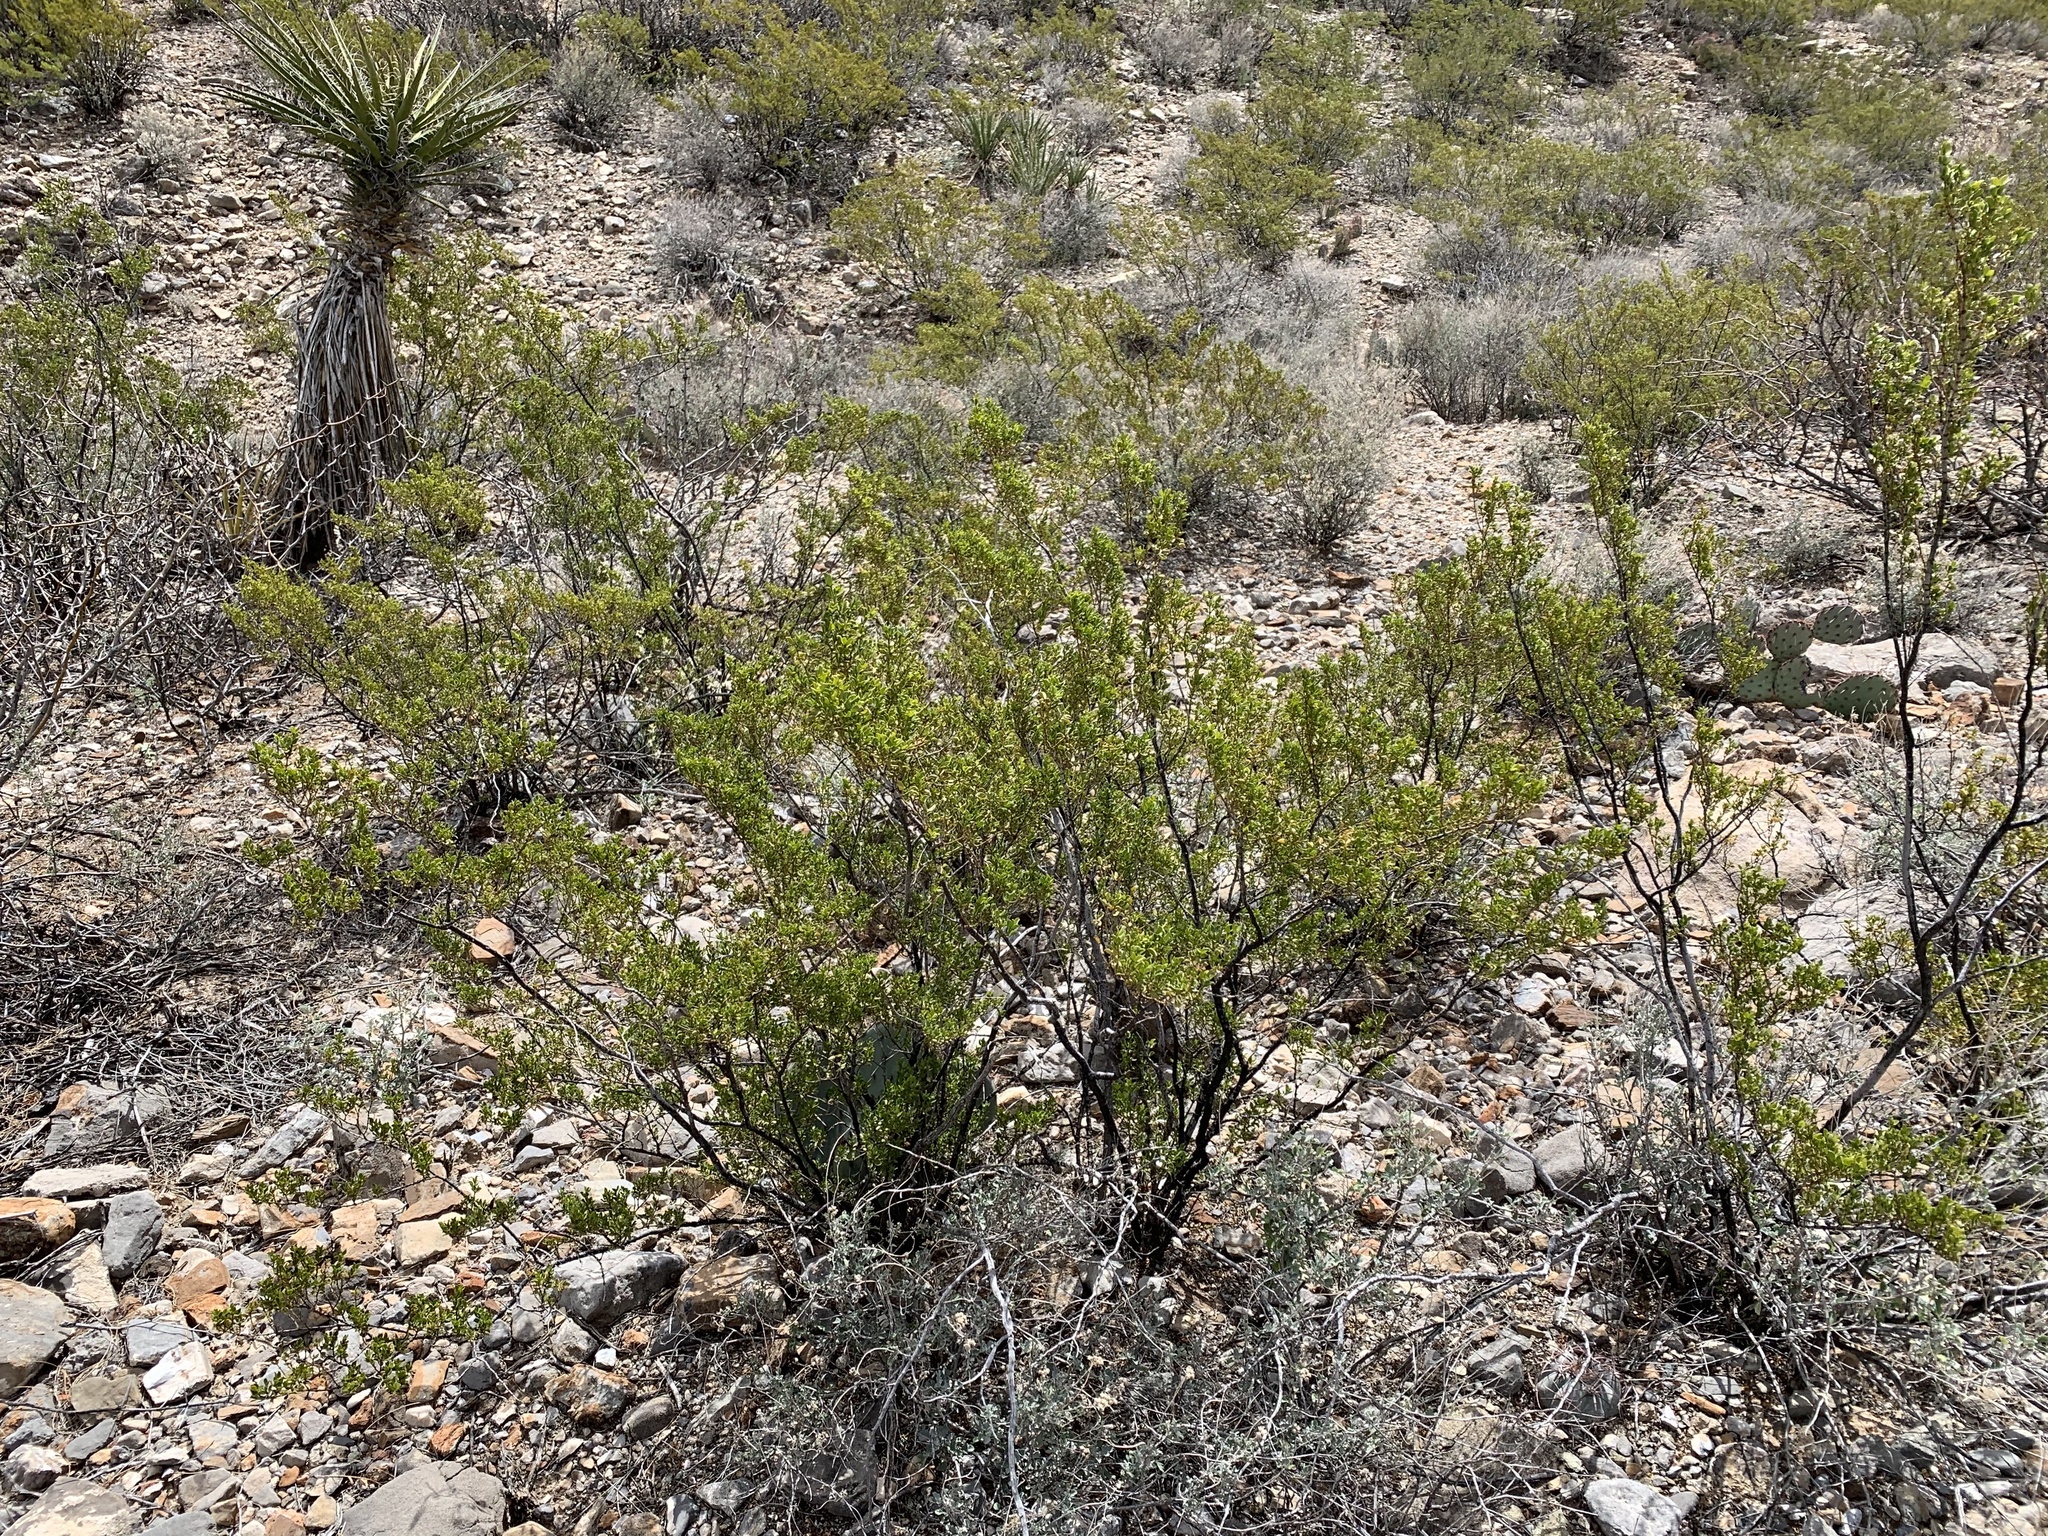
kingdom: Plantae
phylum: Tracheophyta
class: Magnoliopsida
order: Zygophyllales
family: Zygophyllaceae
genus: Larrea
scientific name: Larrea tridentata
